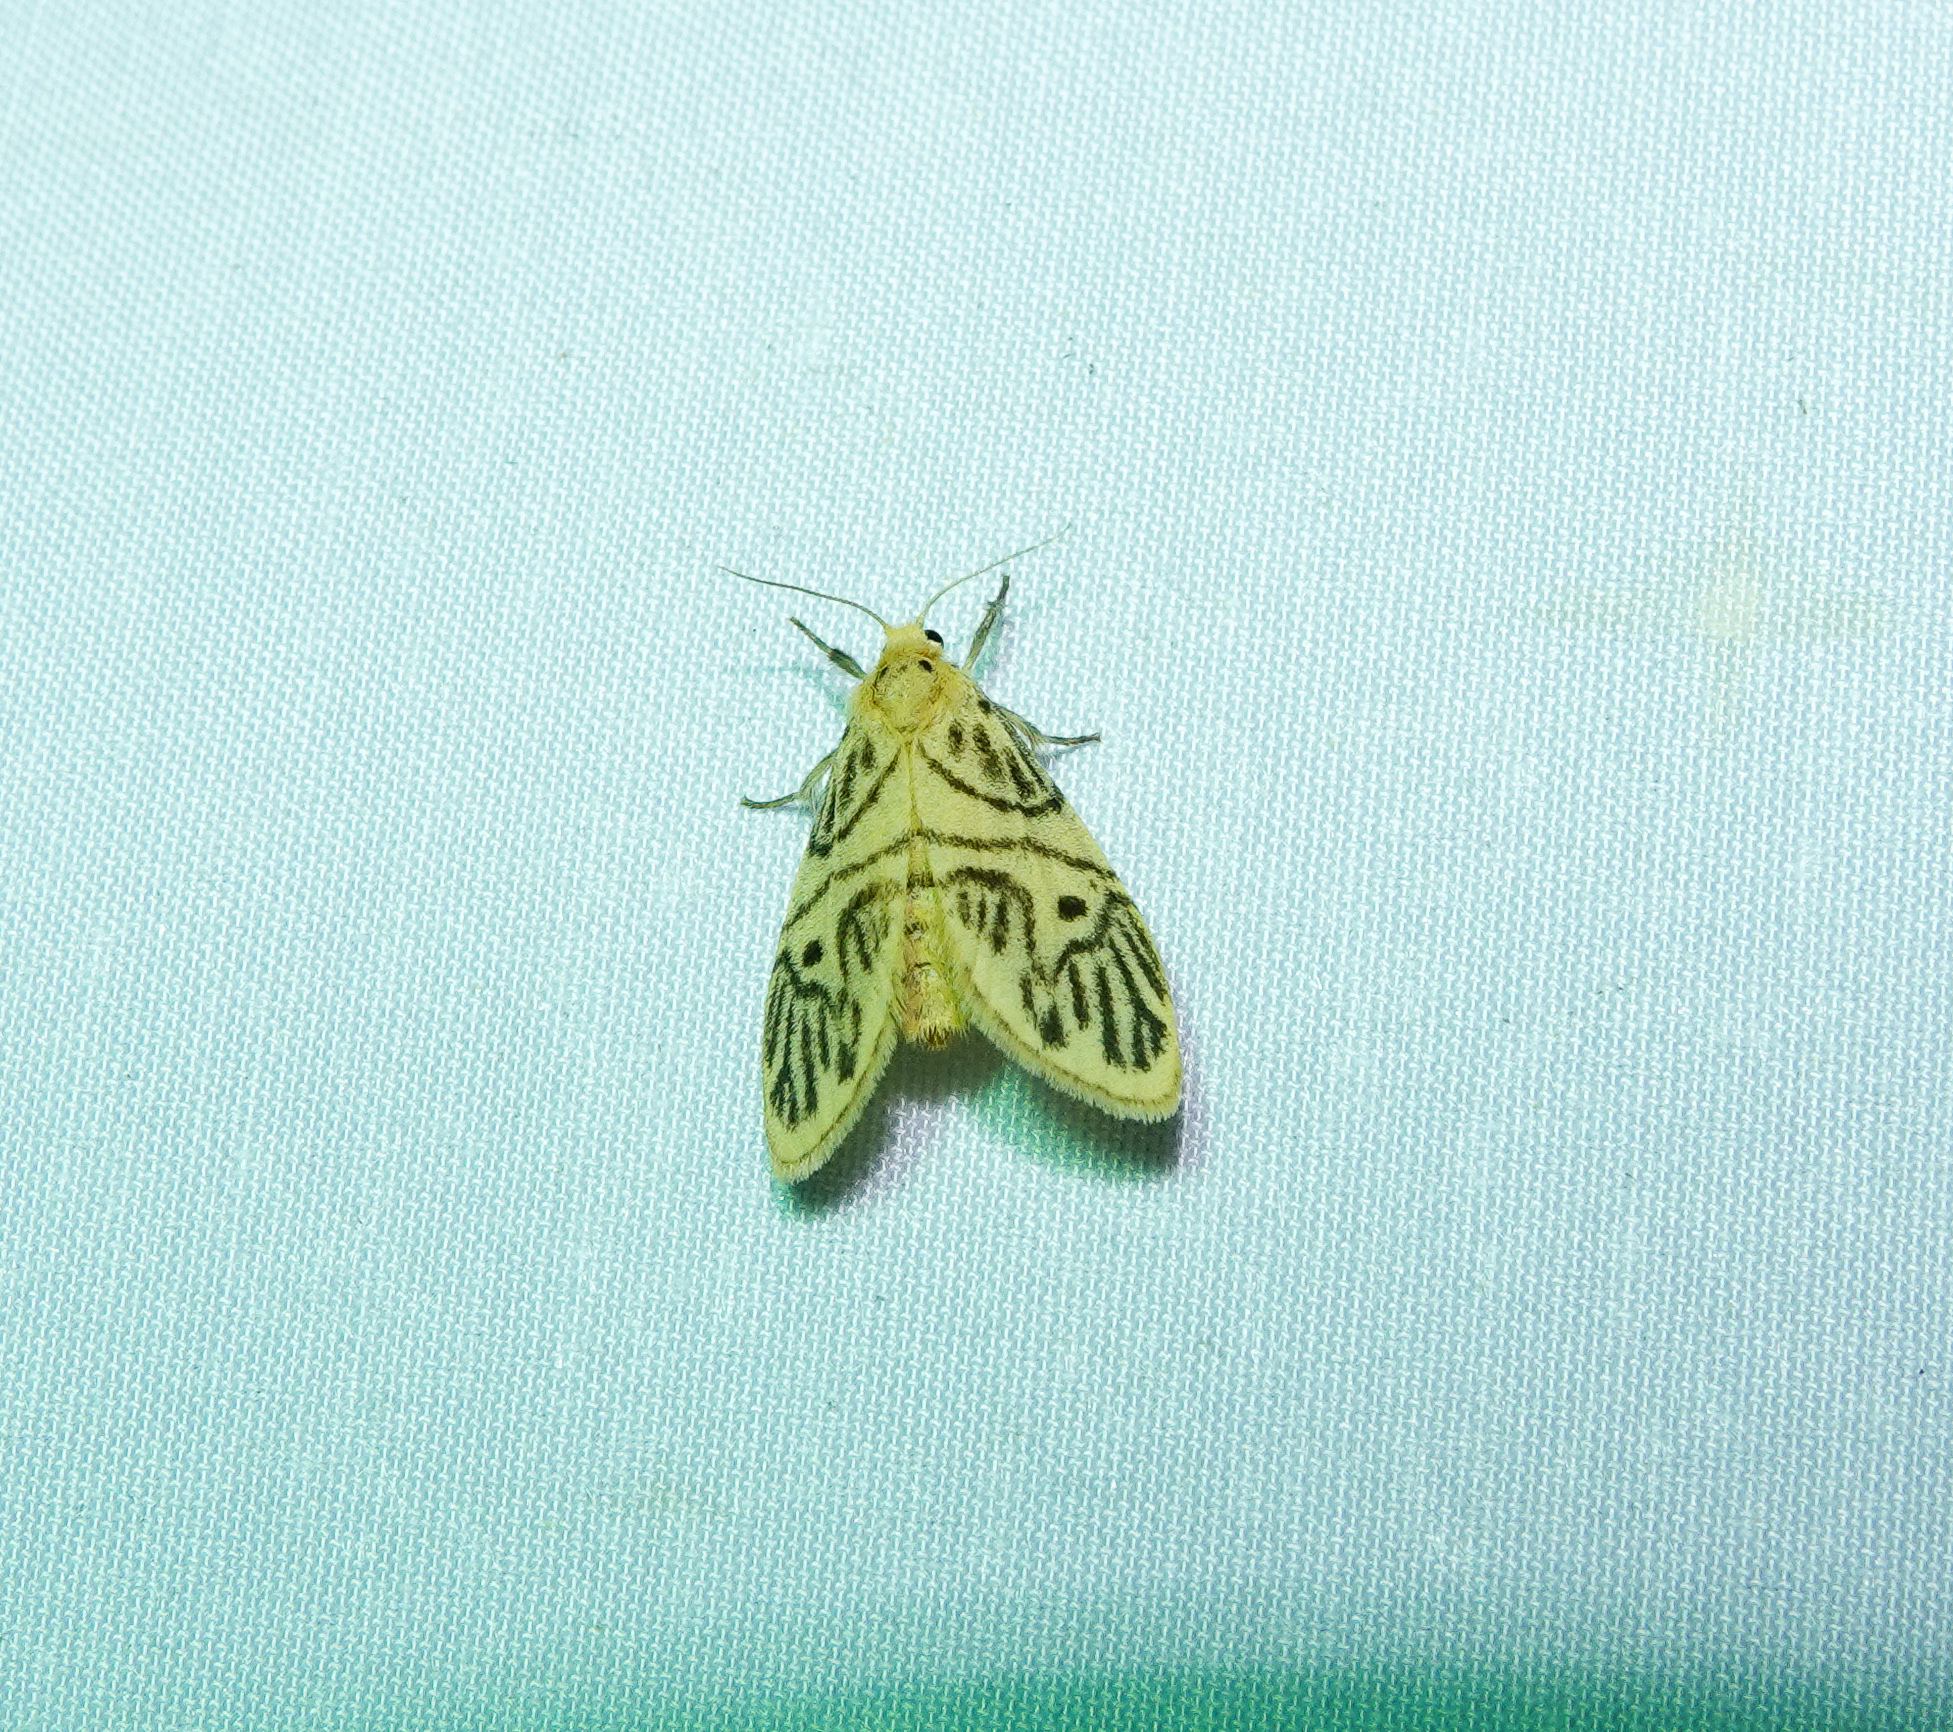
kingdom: Animalia
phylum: Arthropoda
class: Insecta
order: Lepidoptera
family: Erebidae
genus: Disasuridia
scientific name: Disasuridia fangae
